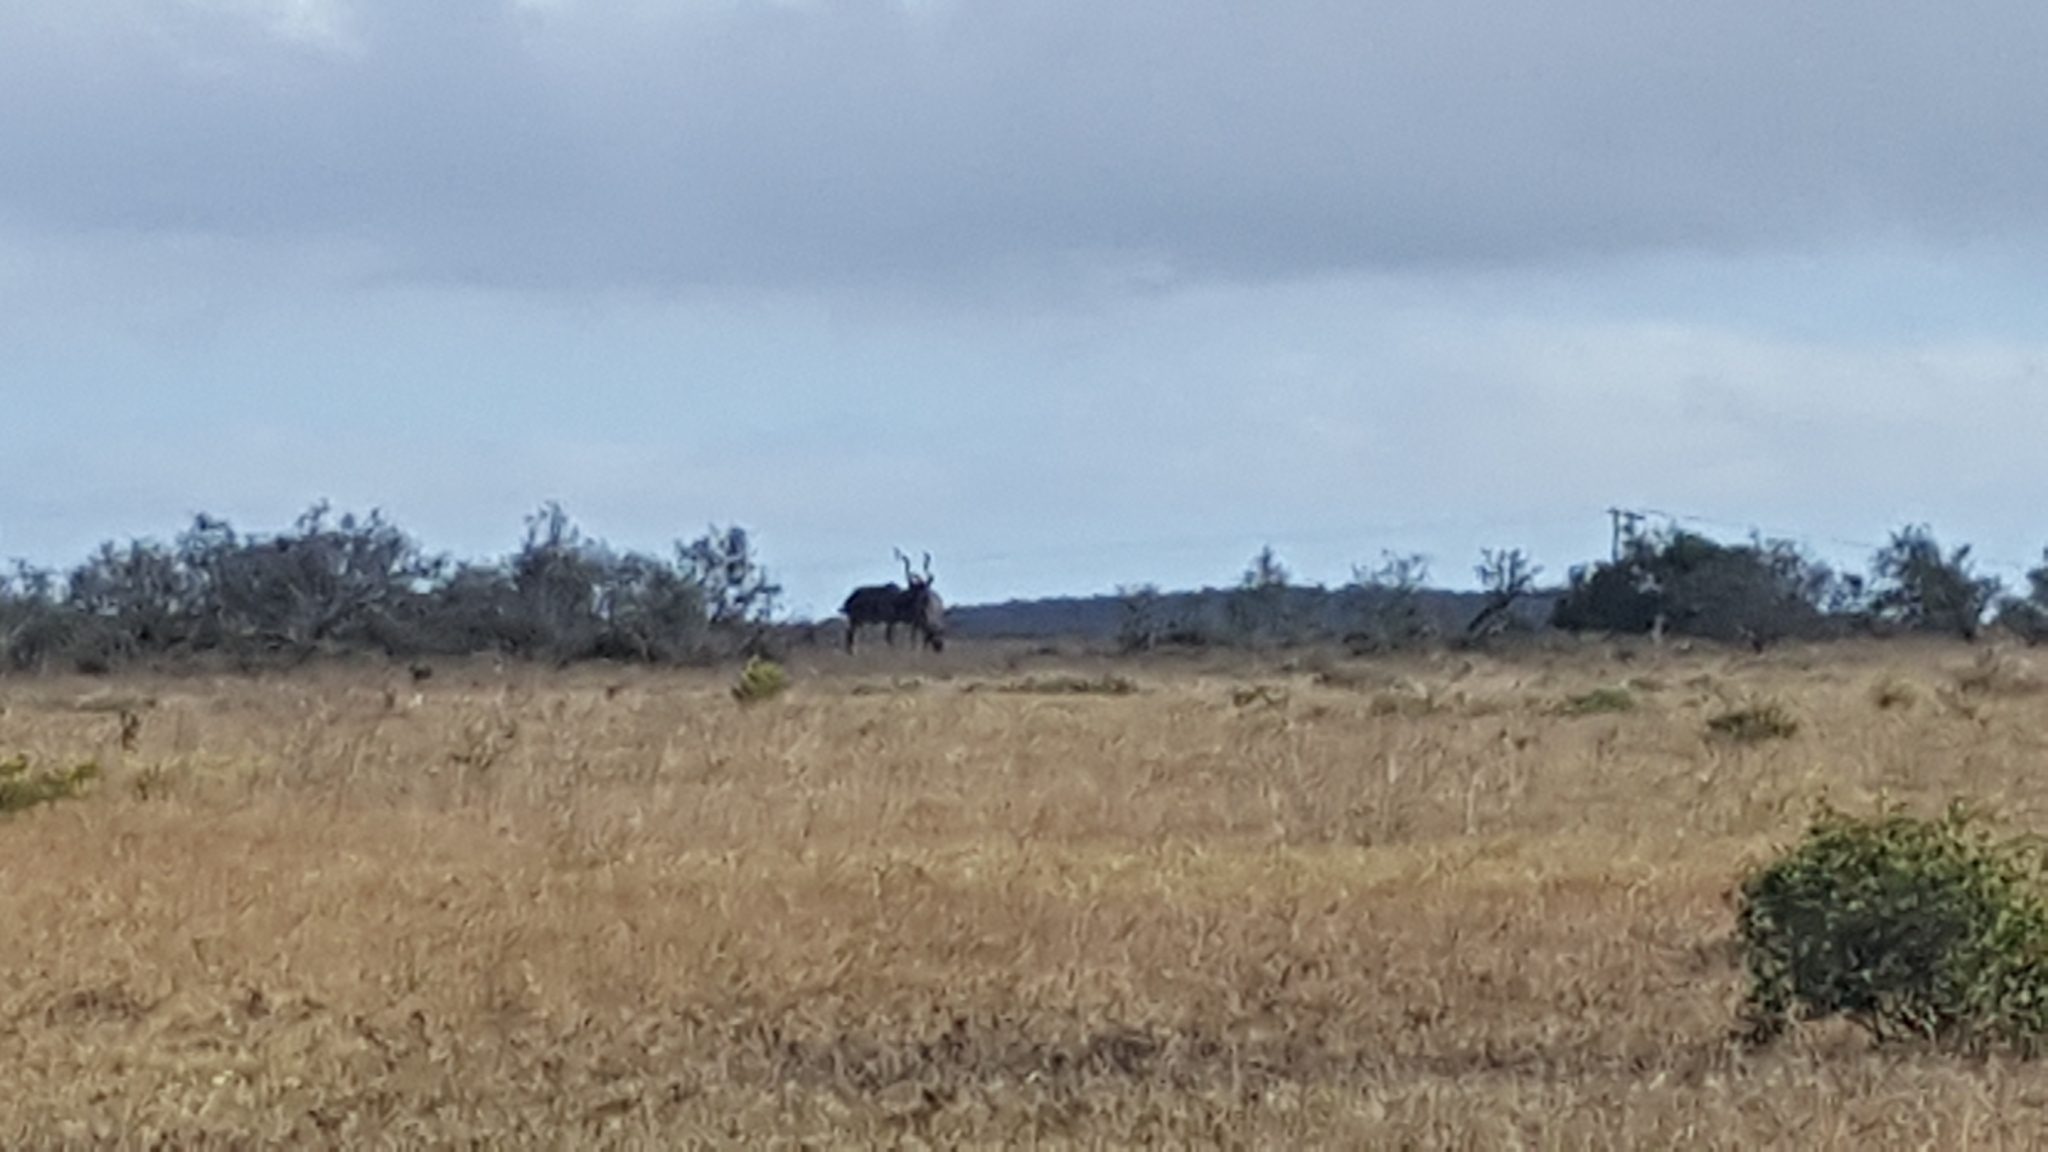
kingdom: Animalia
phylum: Chordata
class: Mammalia
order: Artiodactyla
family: Bovidae
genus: Tragelaphus
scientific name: Tragelaphus strepsiceros
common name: Greater kudu
